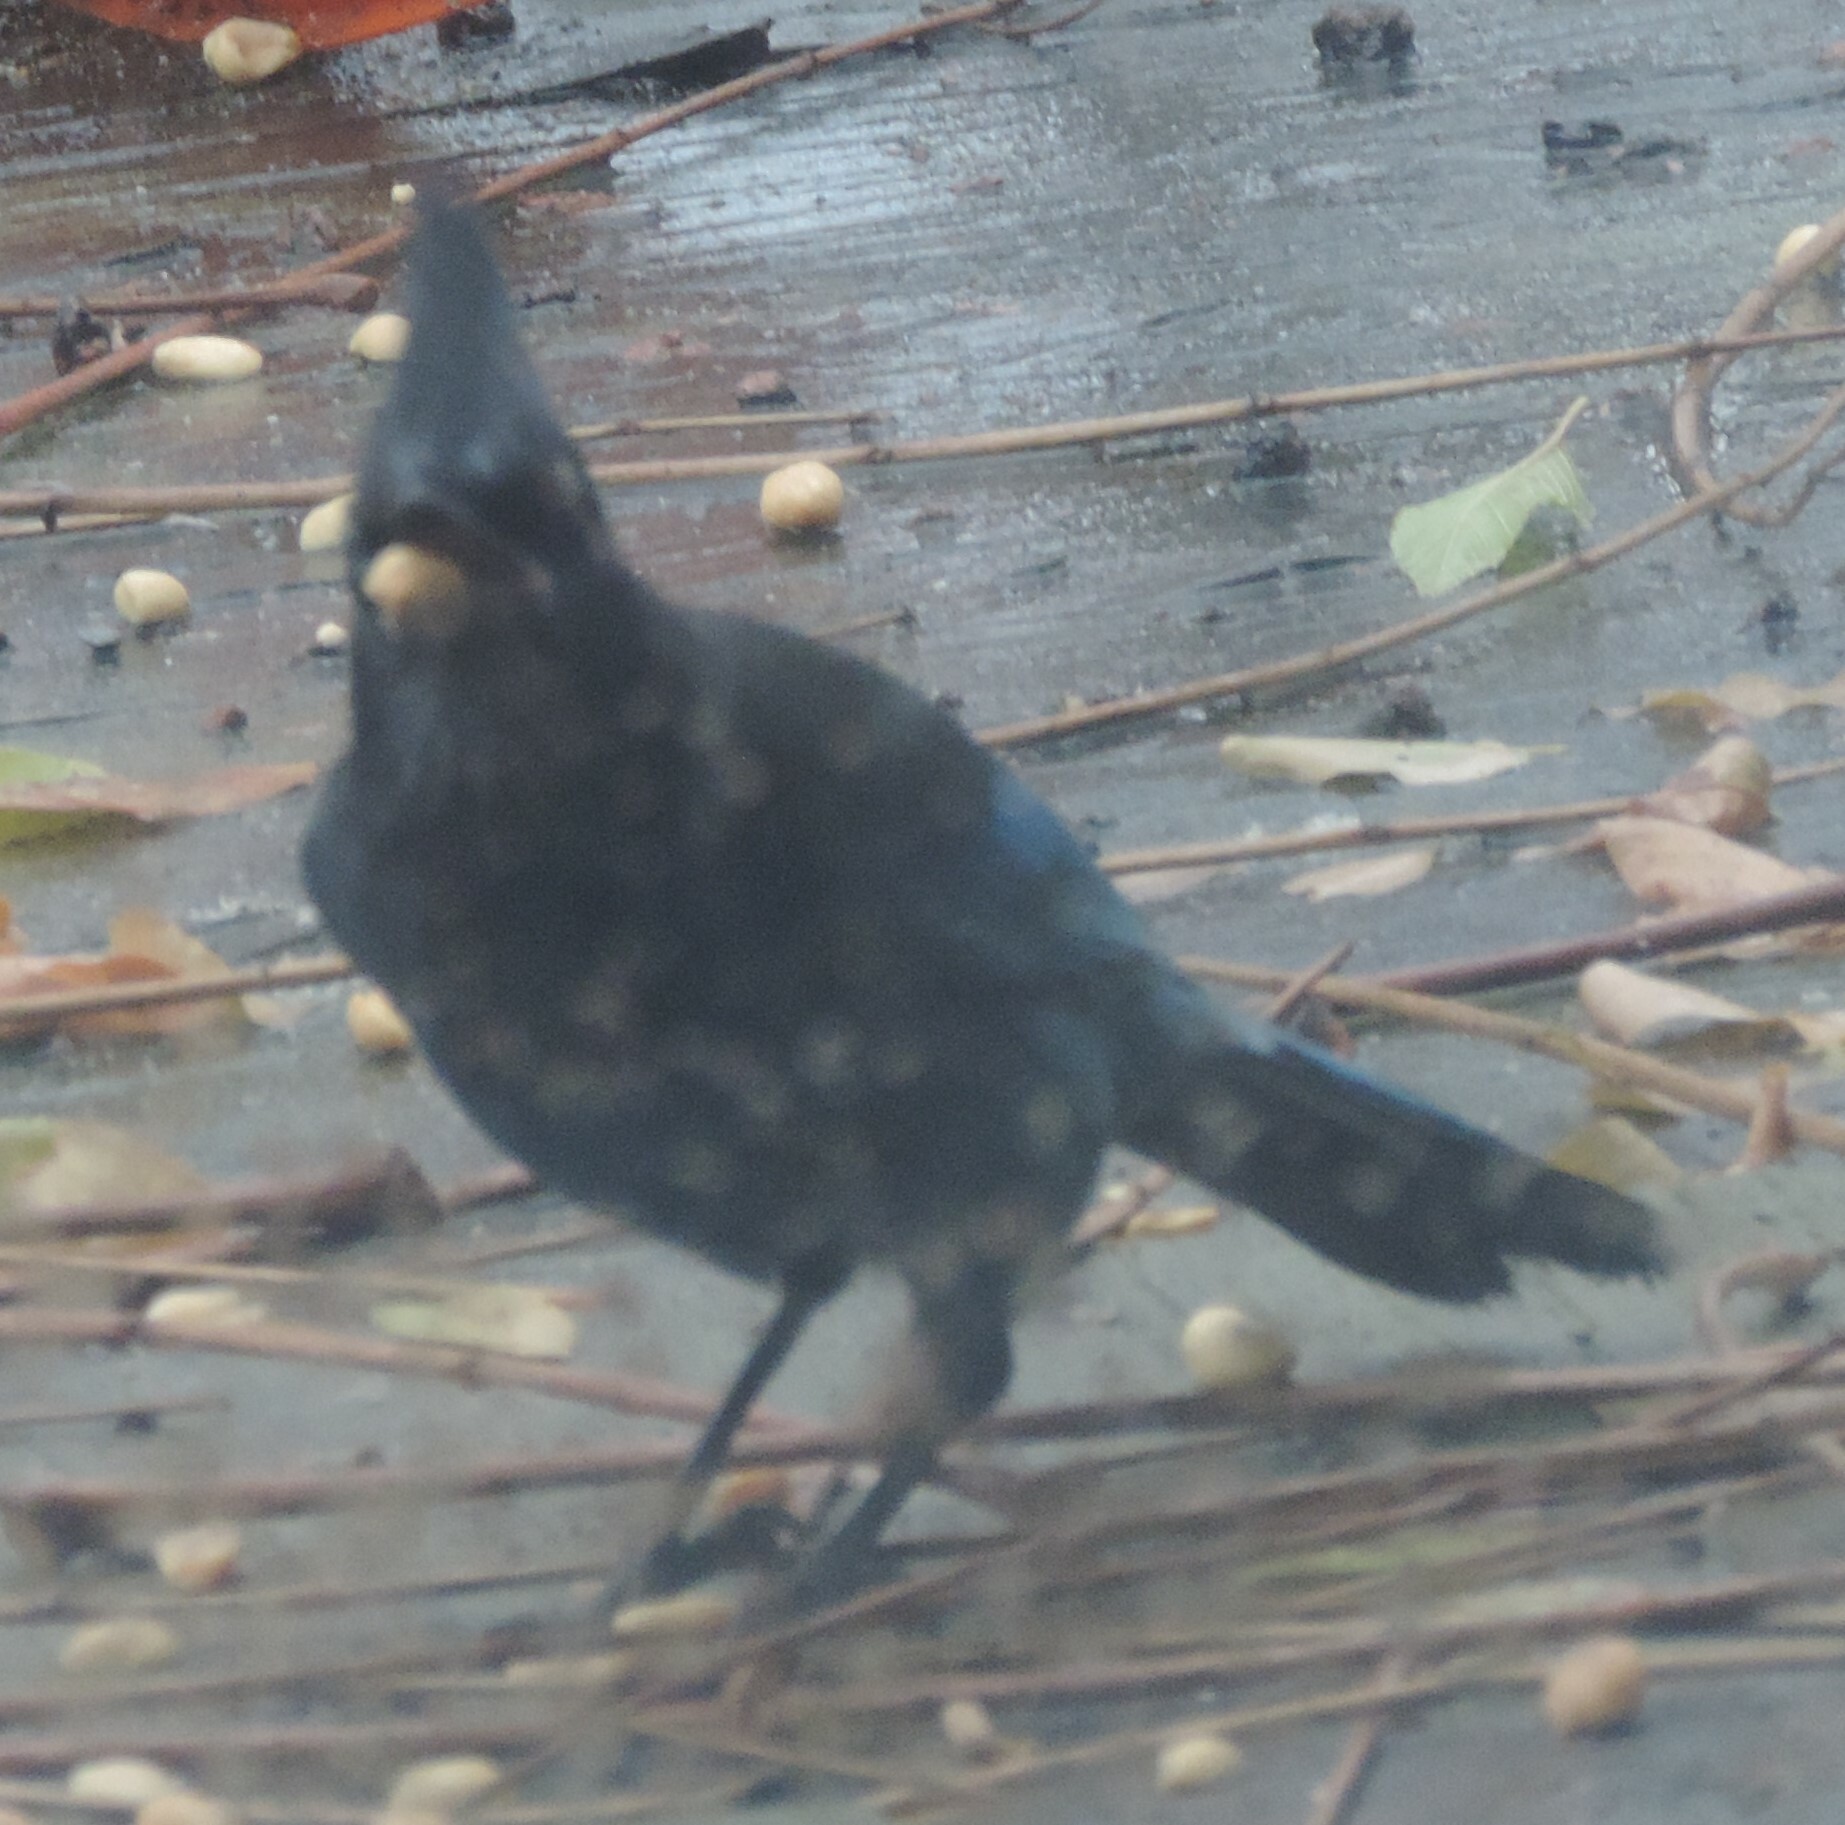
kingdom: Animalia
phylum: Chordata
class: Aves
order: Passeriformes
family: Corvidae
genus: Cyanocitta
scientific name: Cyanocitta stelleri
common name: Steller's jay
